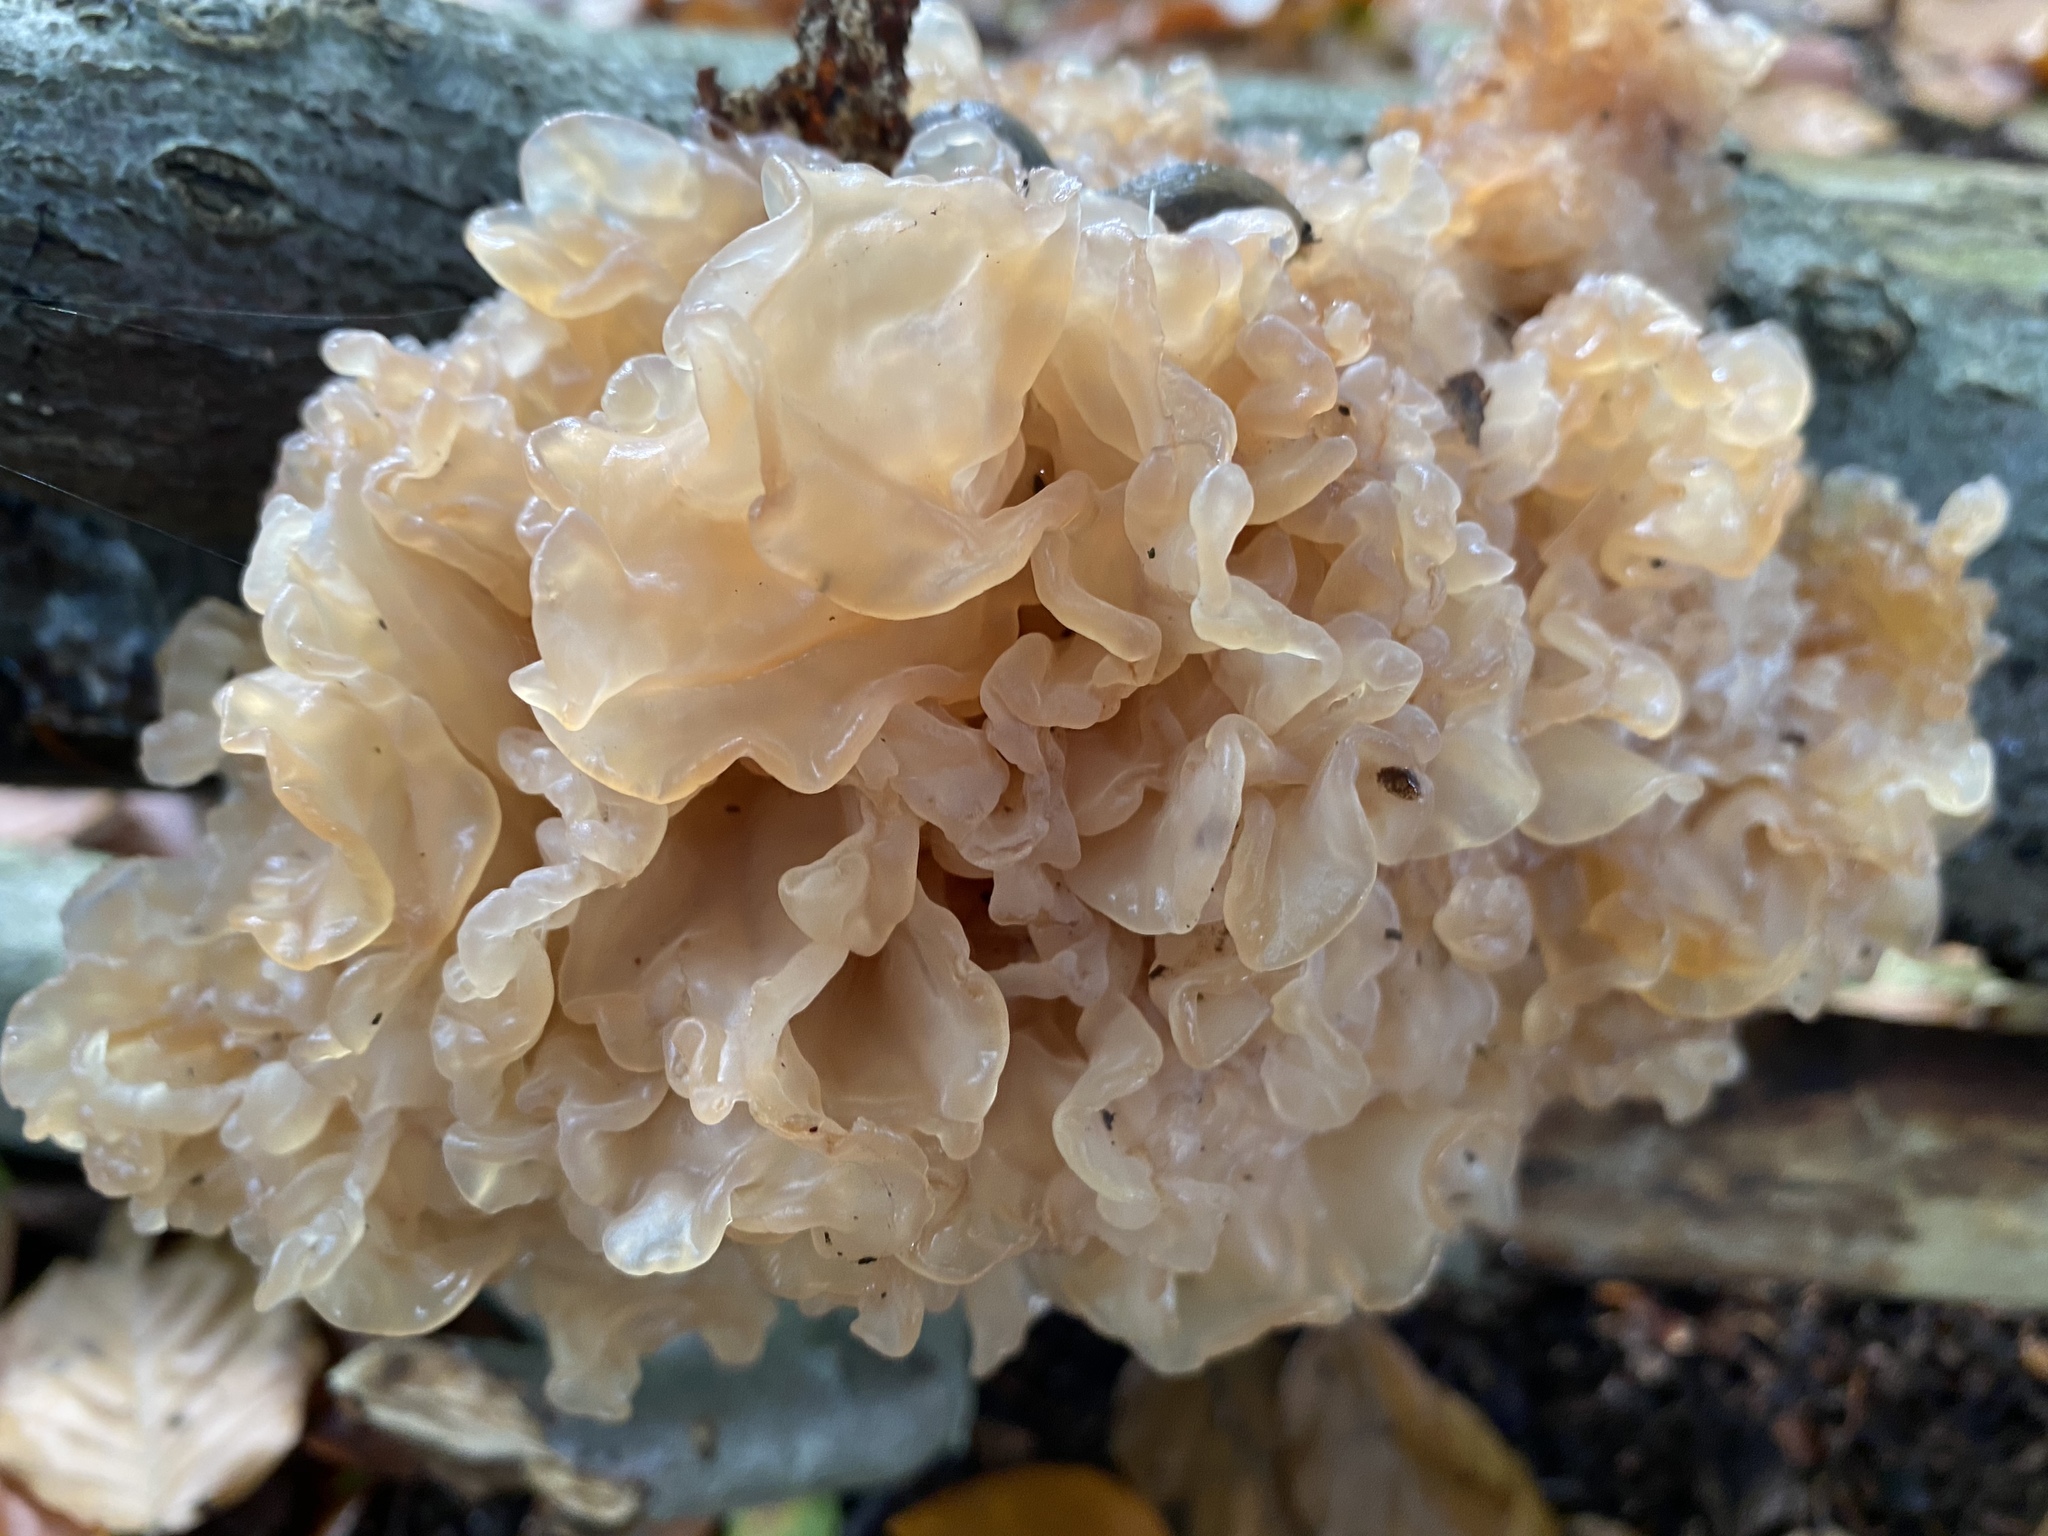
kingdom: Fungi
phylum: Basidiomycota
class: Tremellomycetes
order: Tremellales
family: Tremellaceae
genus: Phaeotremella
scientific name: Phaeotremella foliacea
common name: Leafy brain
